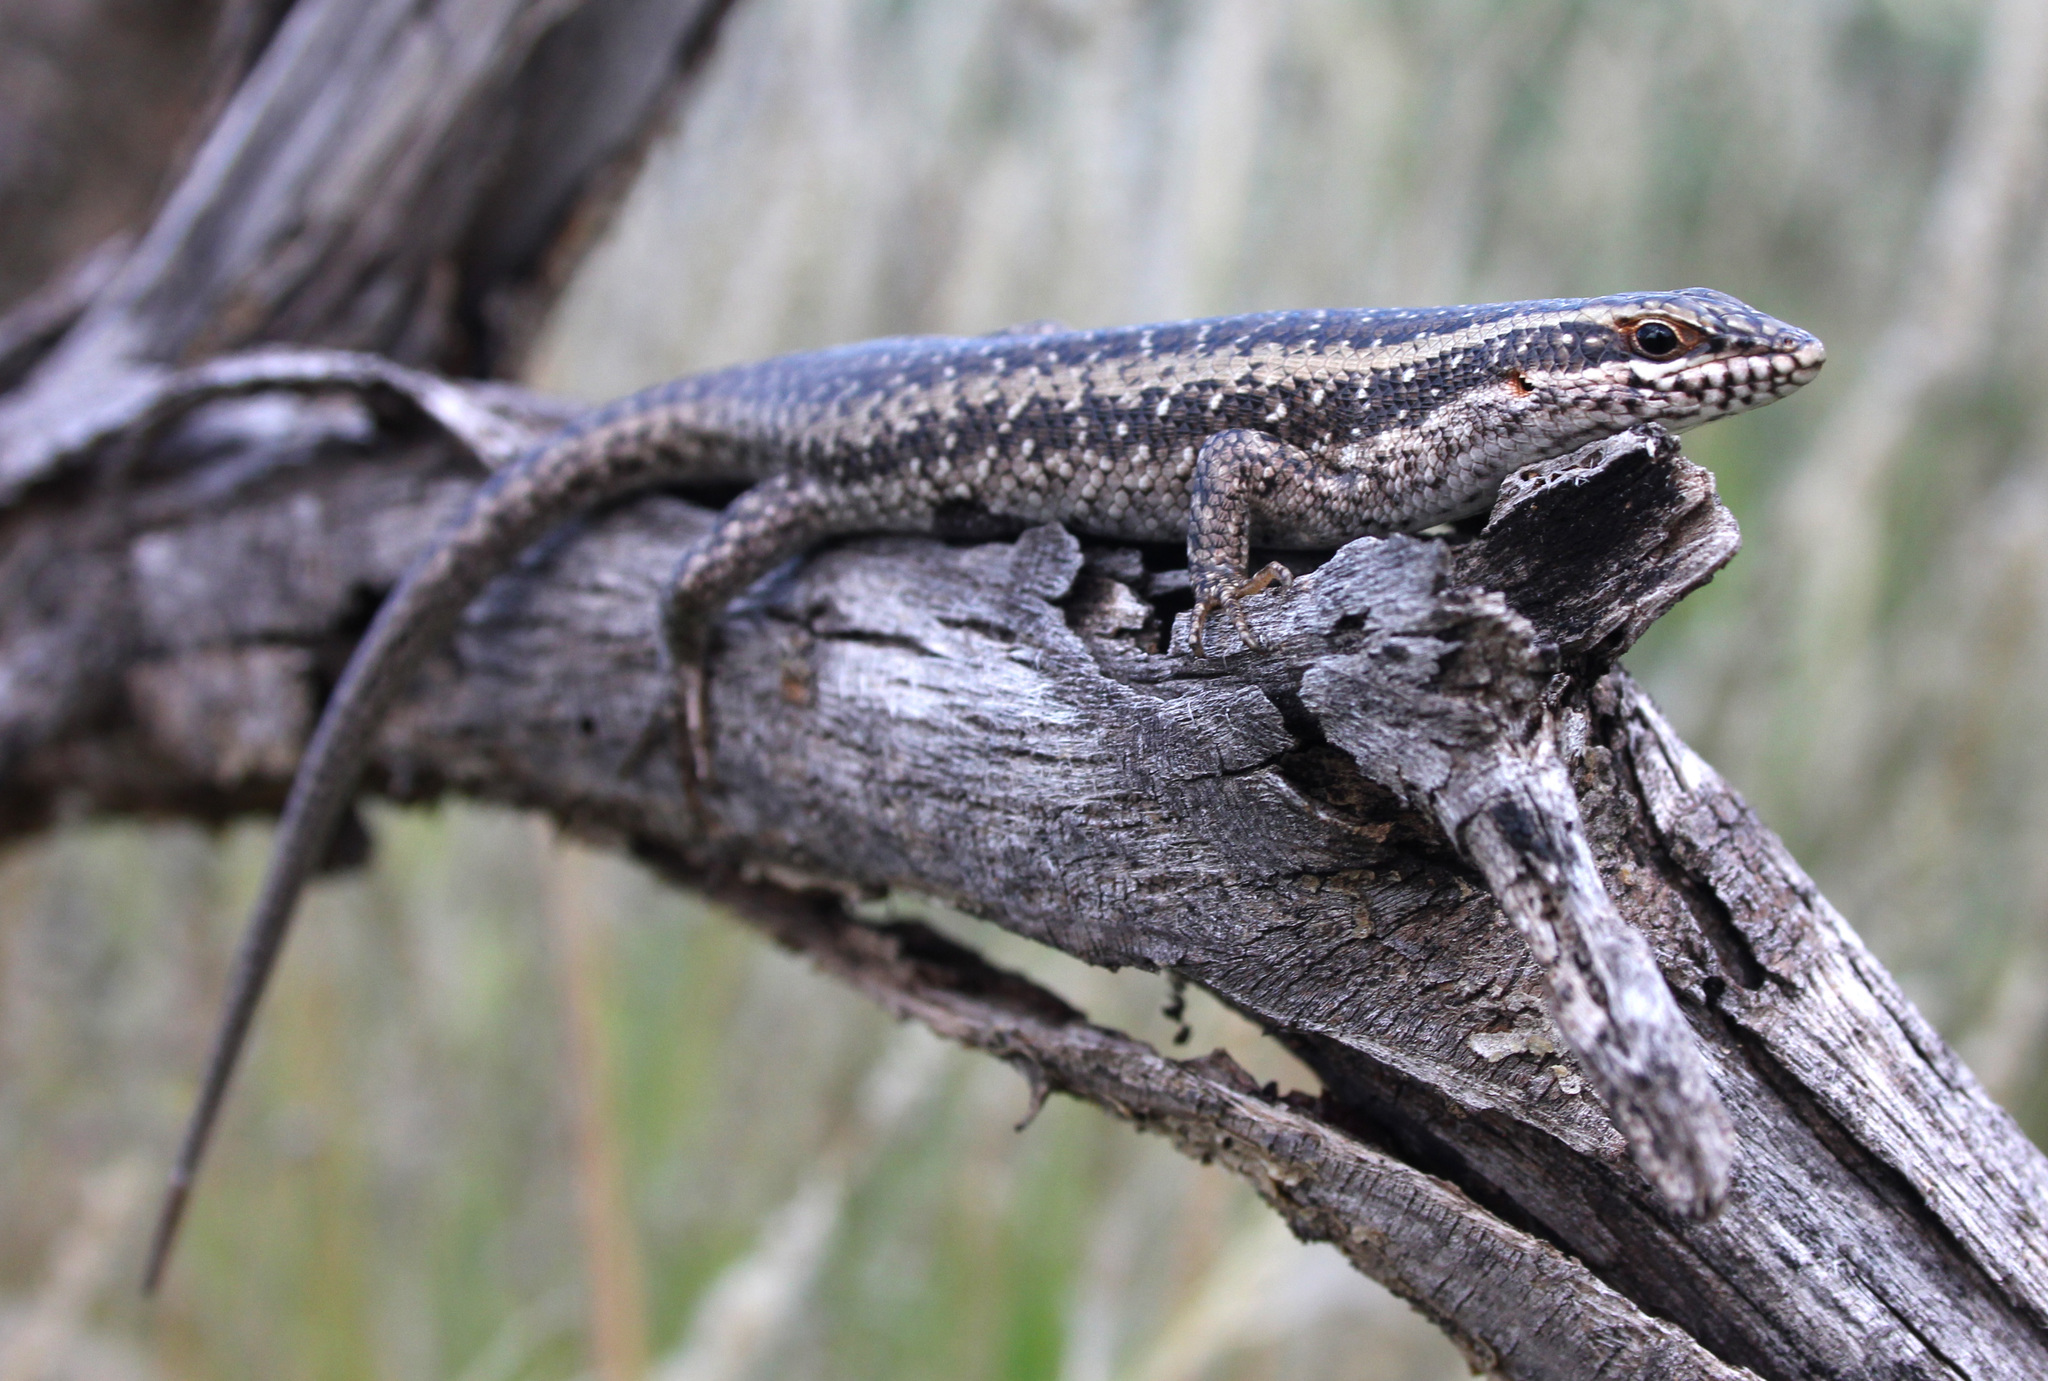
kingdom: Animalia
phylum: Chordata
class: Squamata
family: Scincidae
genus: Trachylepis
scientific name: Trachylepis spilogaster
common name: Kalahari tree skink
